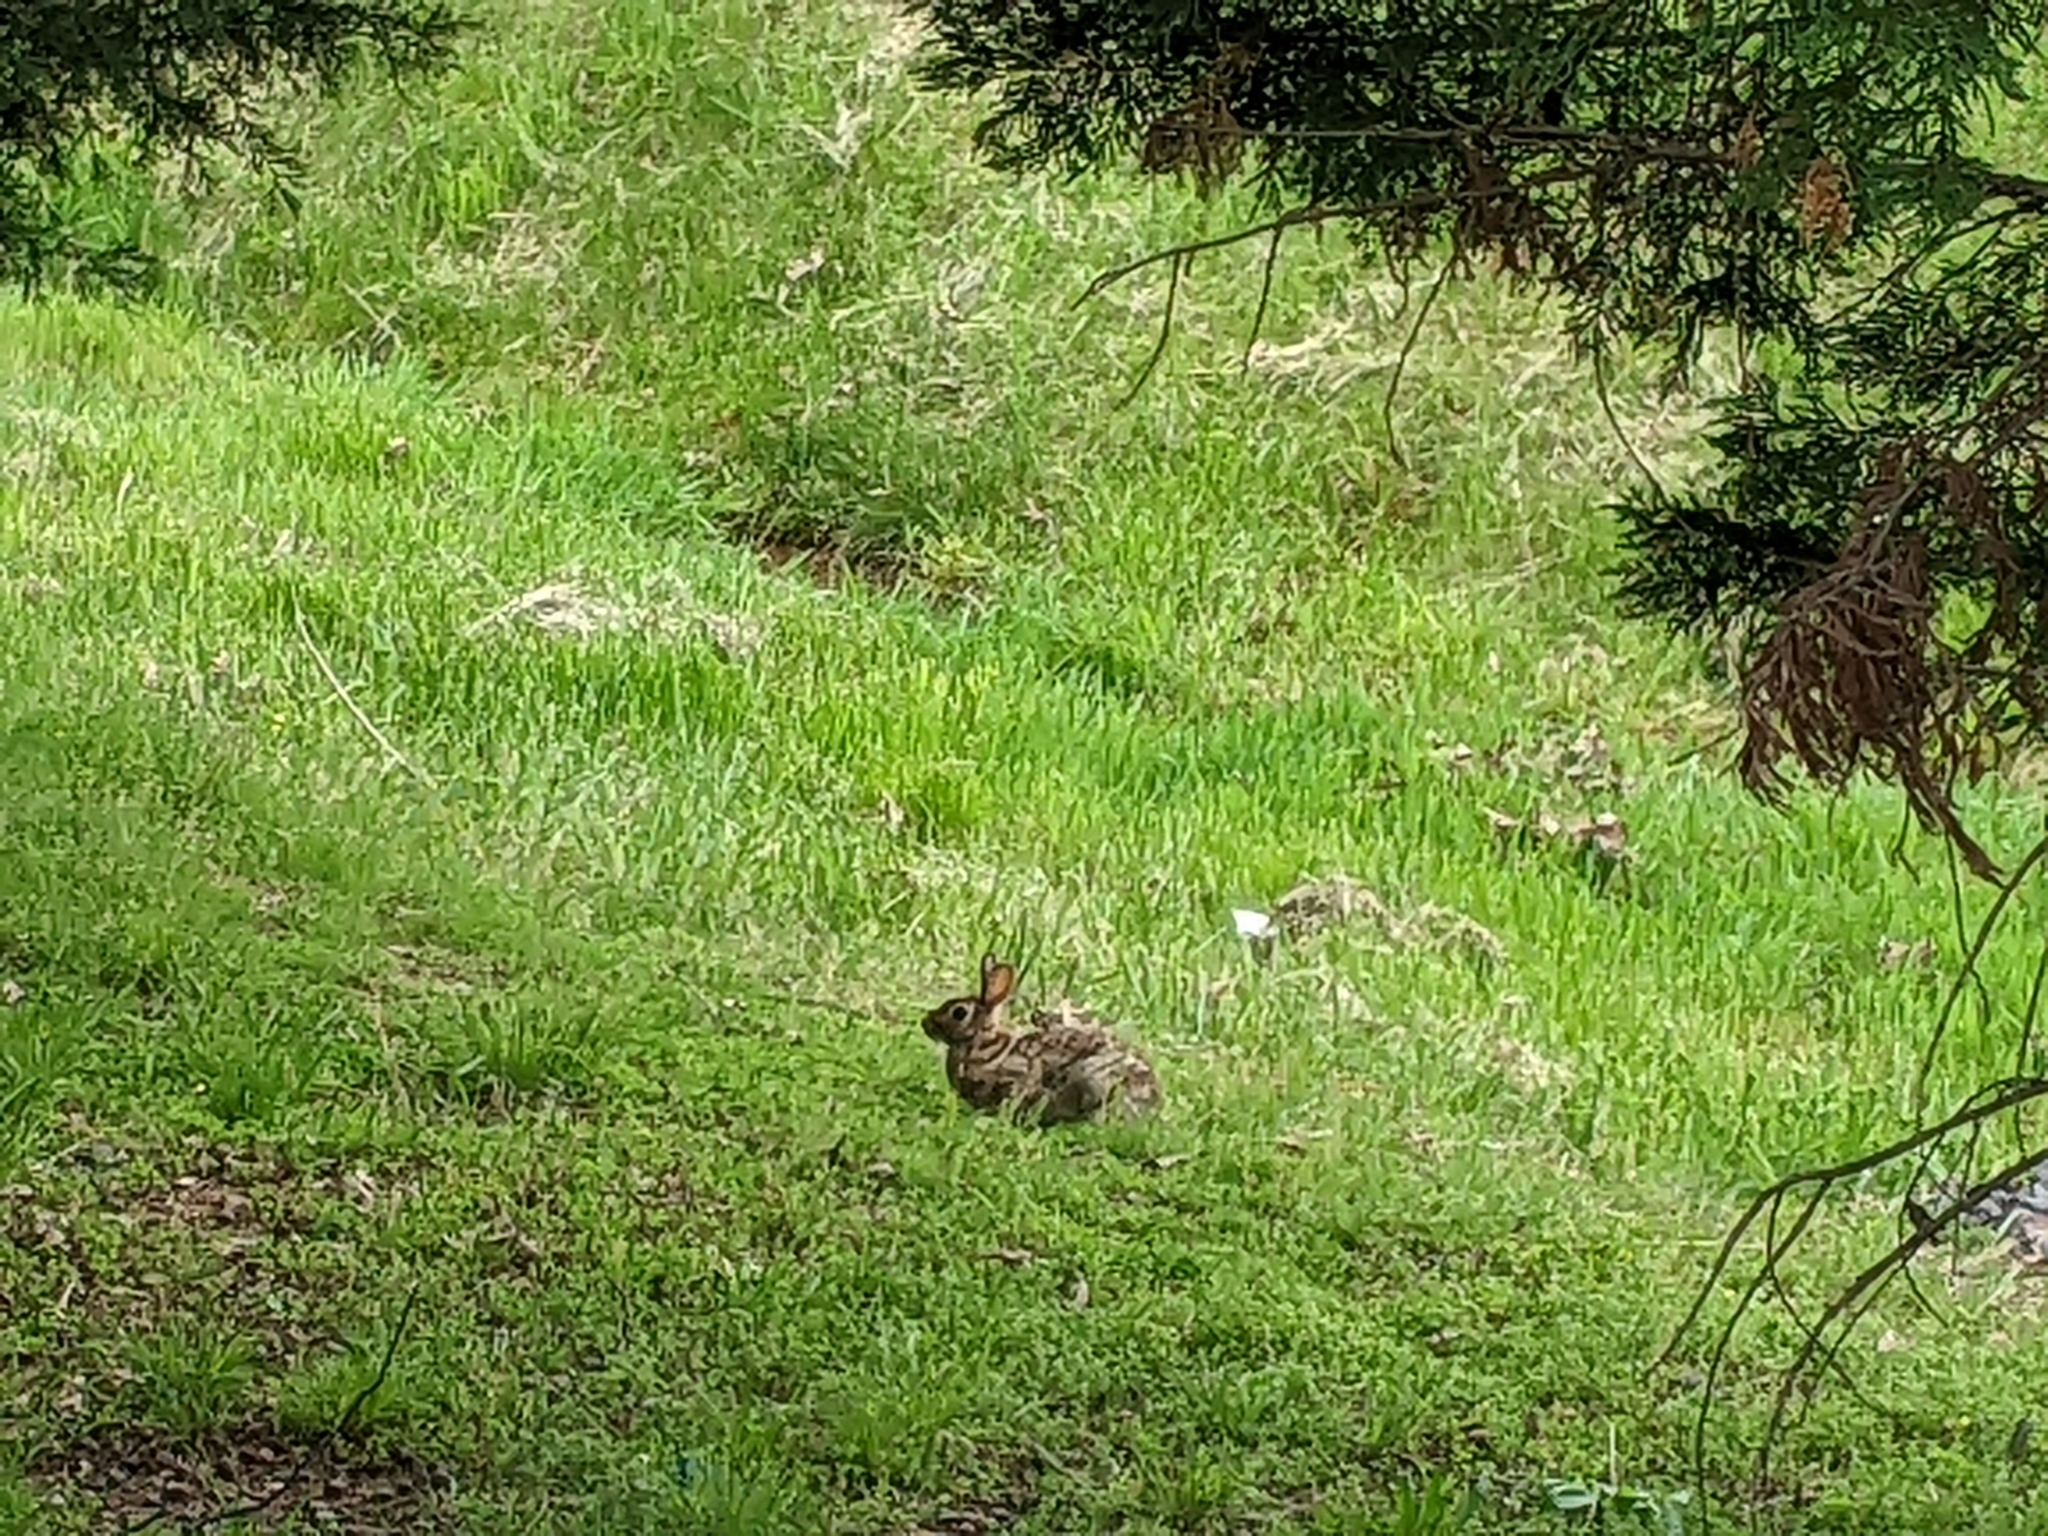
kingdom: Animalia
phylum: Chordata
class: Mammalia
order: Lagomorpha
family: Leporidae
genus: Sylvilagus
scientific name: Sylvilagus floridanus
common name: Eastern cottontail
